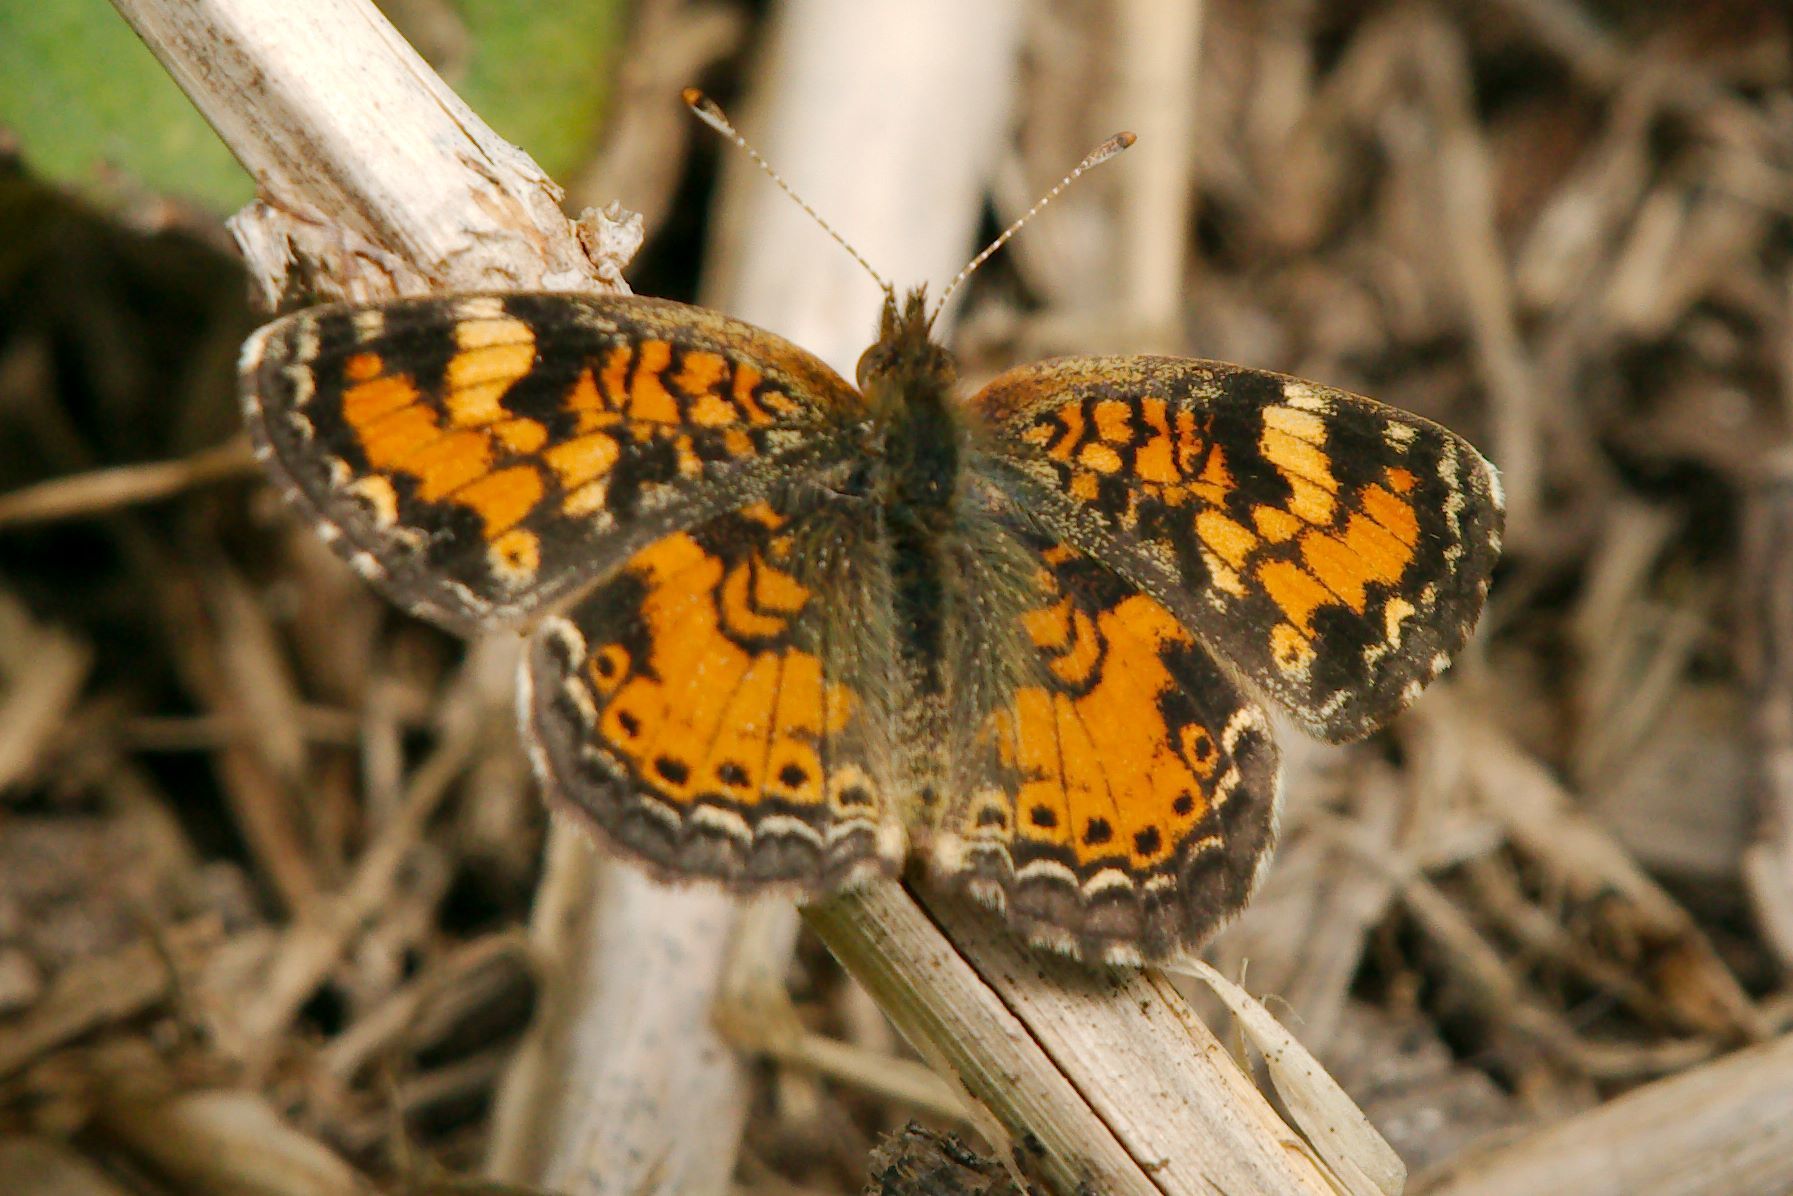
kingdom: Animalia
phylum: Arthropoda
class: Insecta
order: Lepidoptera
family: Nymphalidae
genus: Phyciodes
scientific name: Phyciodes phaon
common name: Phaon crescent
